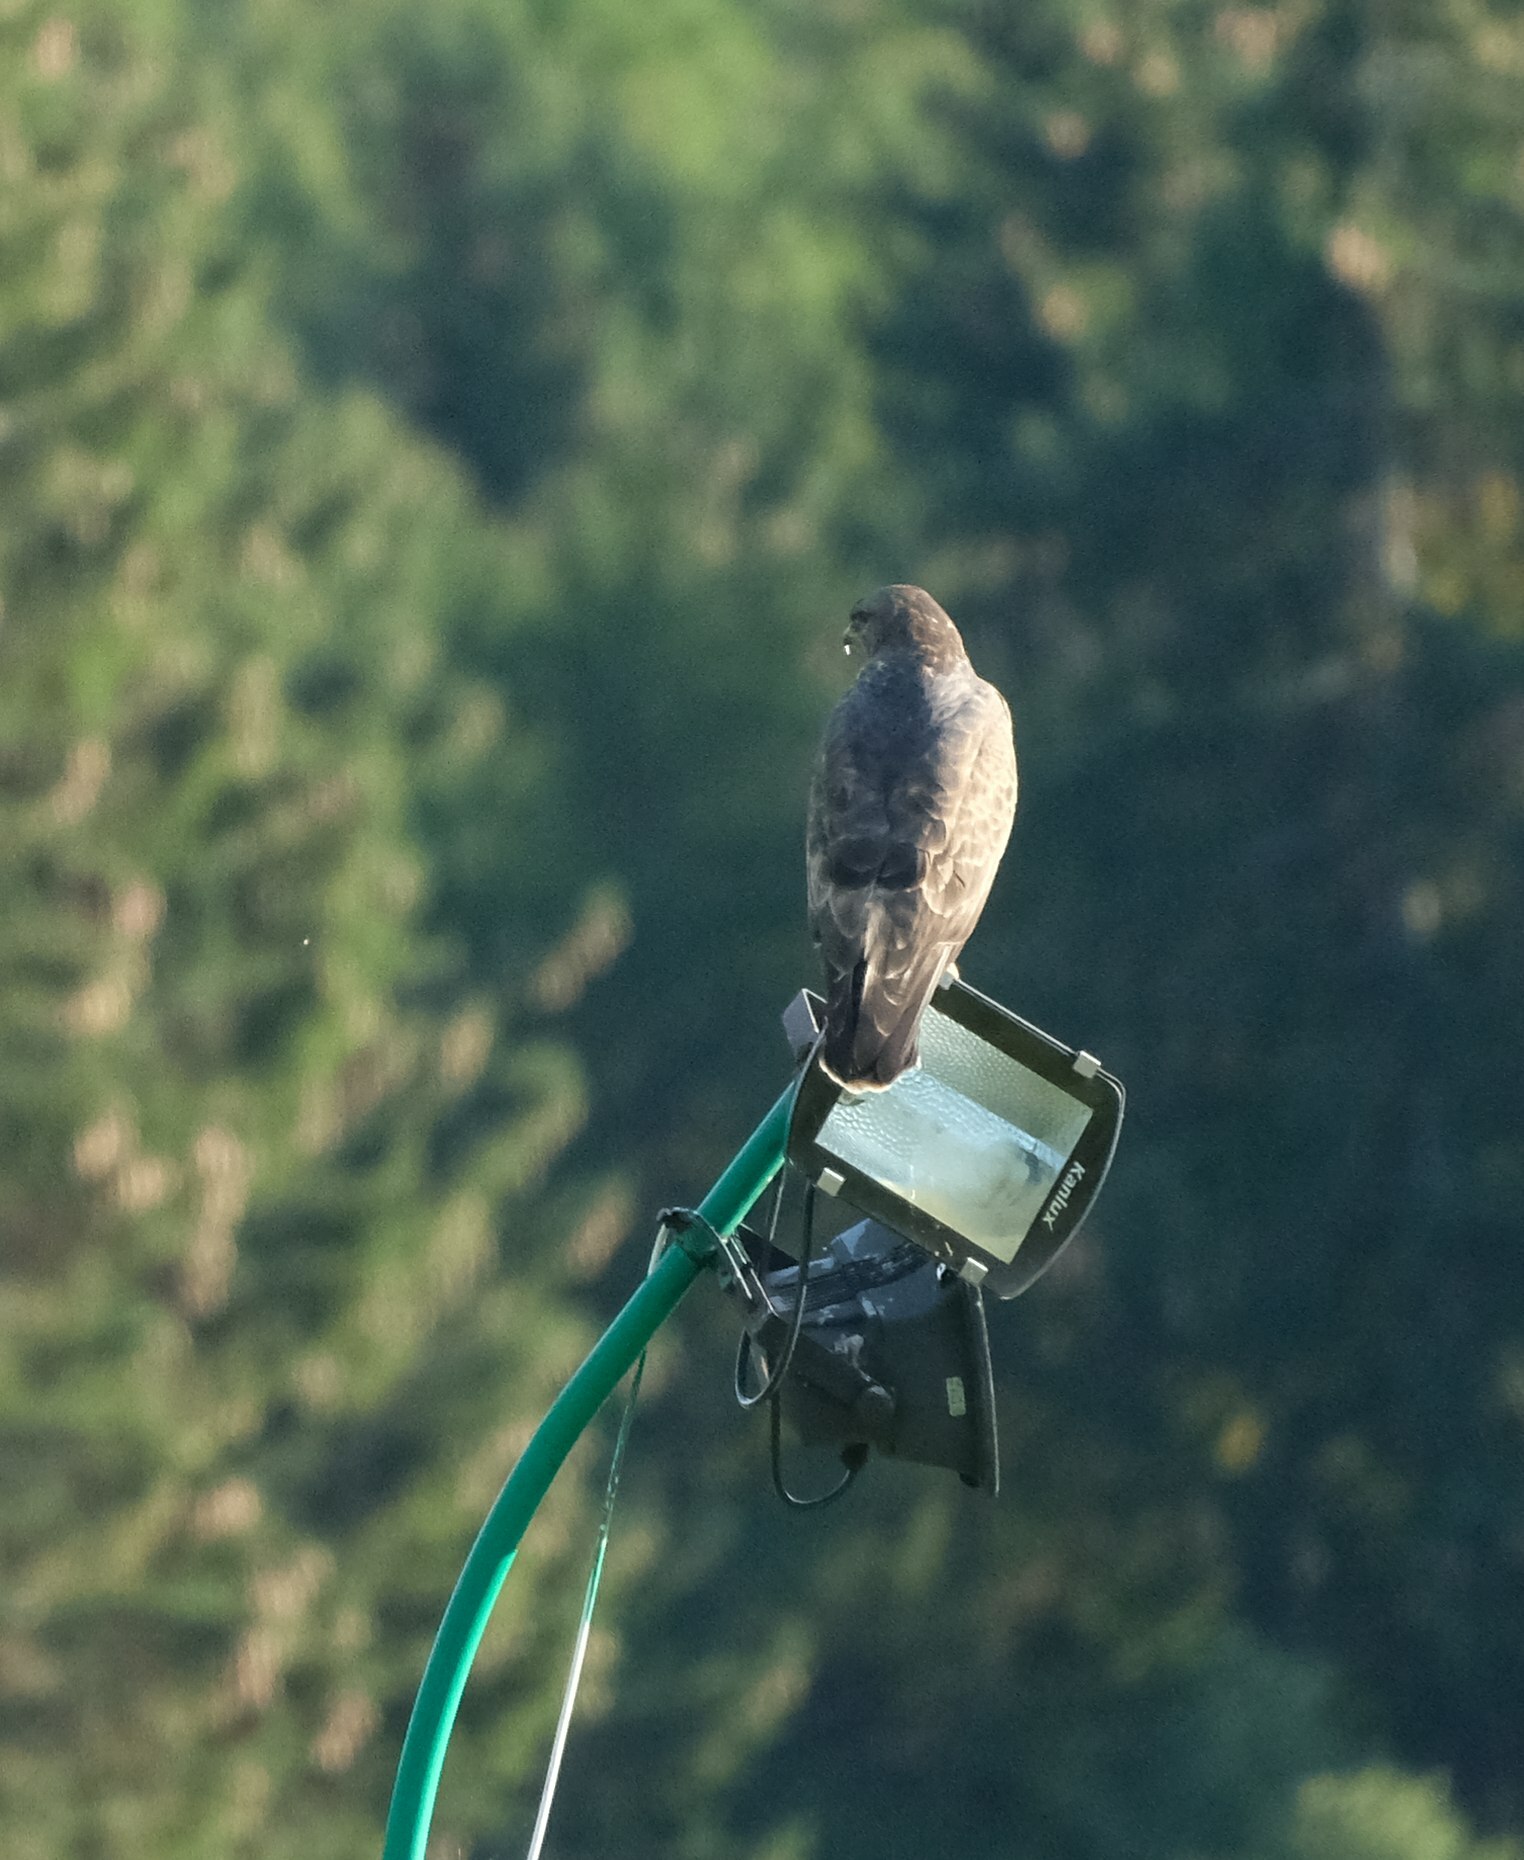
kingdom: Animalia
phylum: Chordata
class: Aves
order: Accipitriformes
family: Accipitridae
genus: Buteo
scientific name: Buteo buteo
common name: Common buzzard
